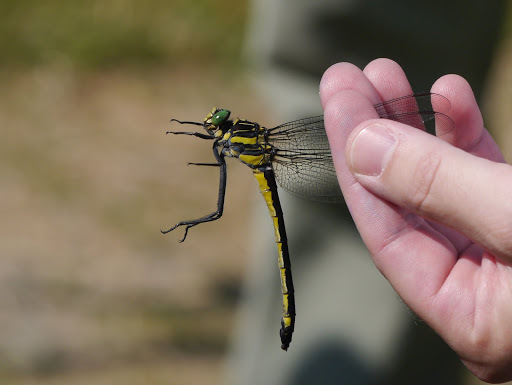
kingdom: Animalia
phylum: Arthropoda
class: Insecta
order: Odonata
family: Gomphidae
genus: Hagenius
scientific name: Hagenius brevistylus
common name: Dragonhunter
